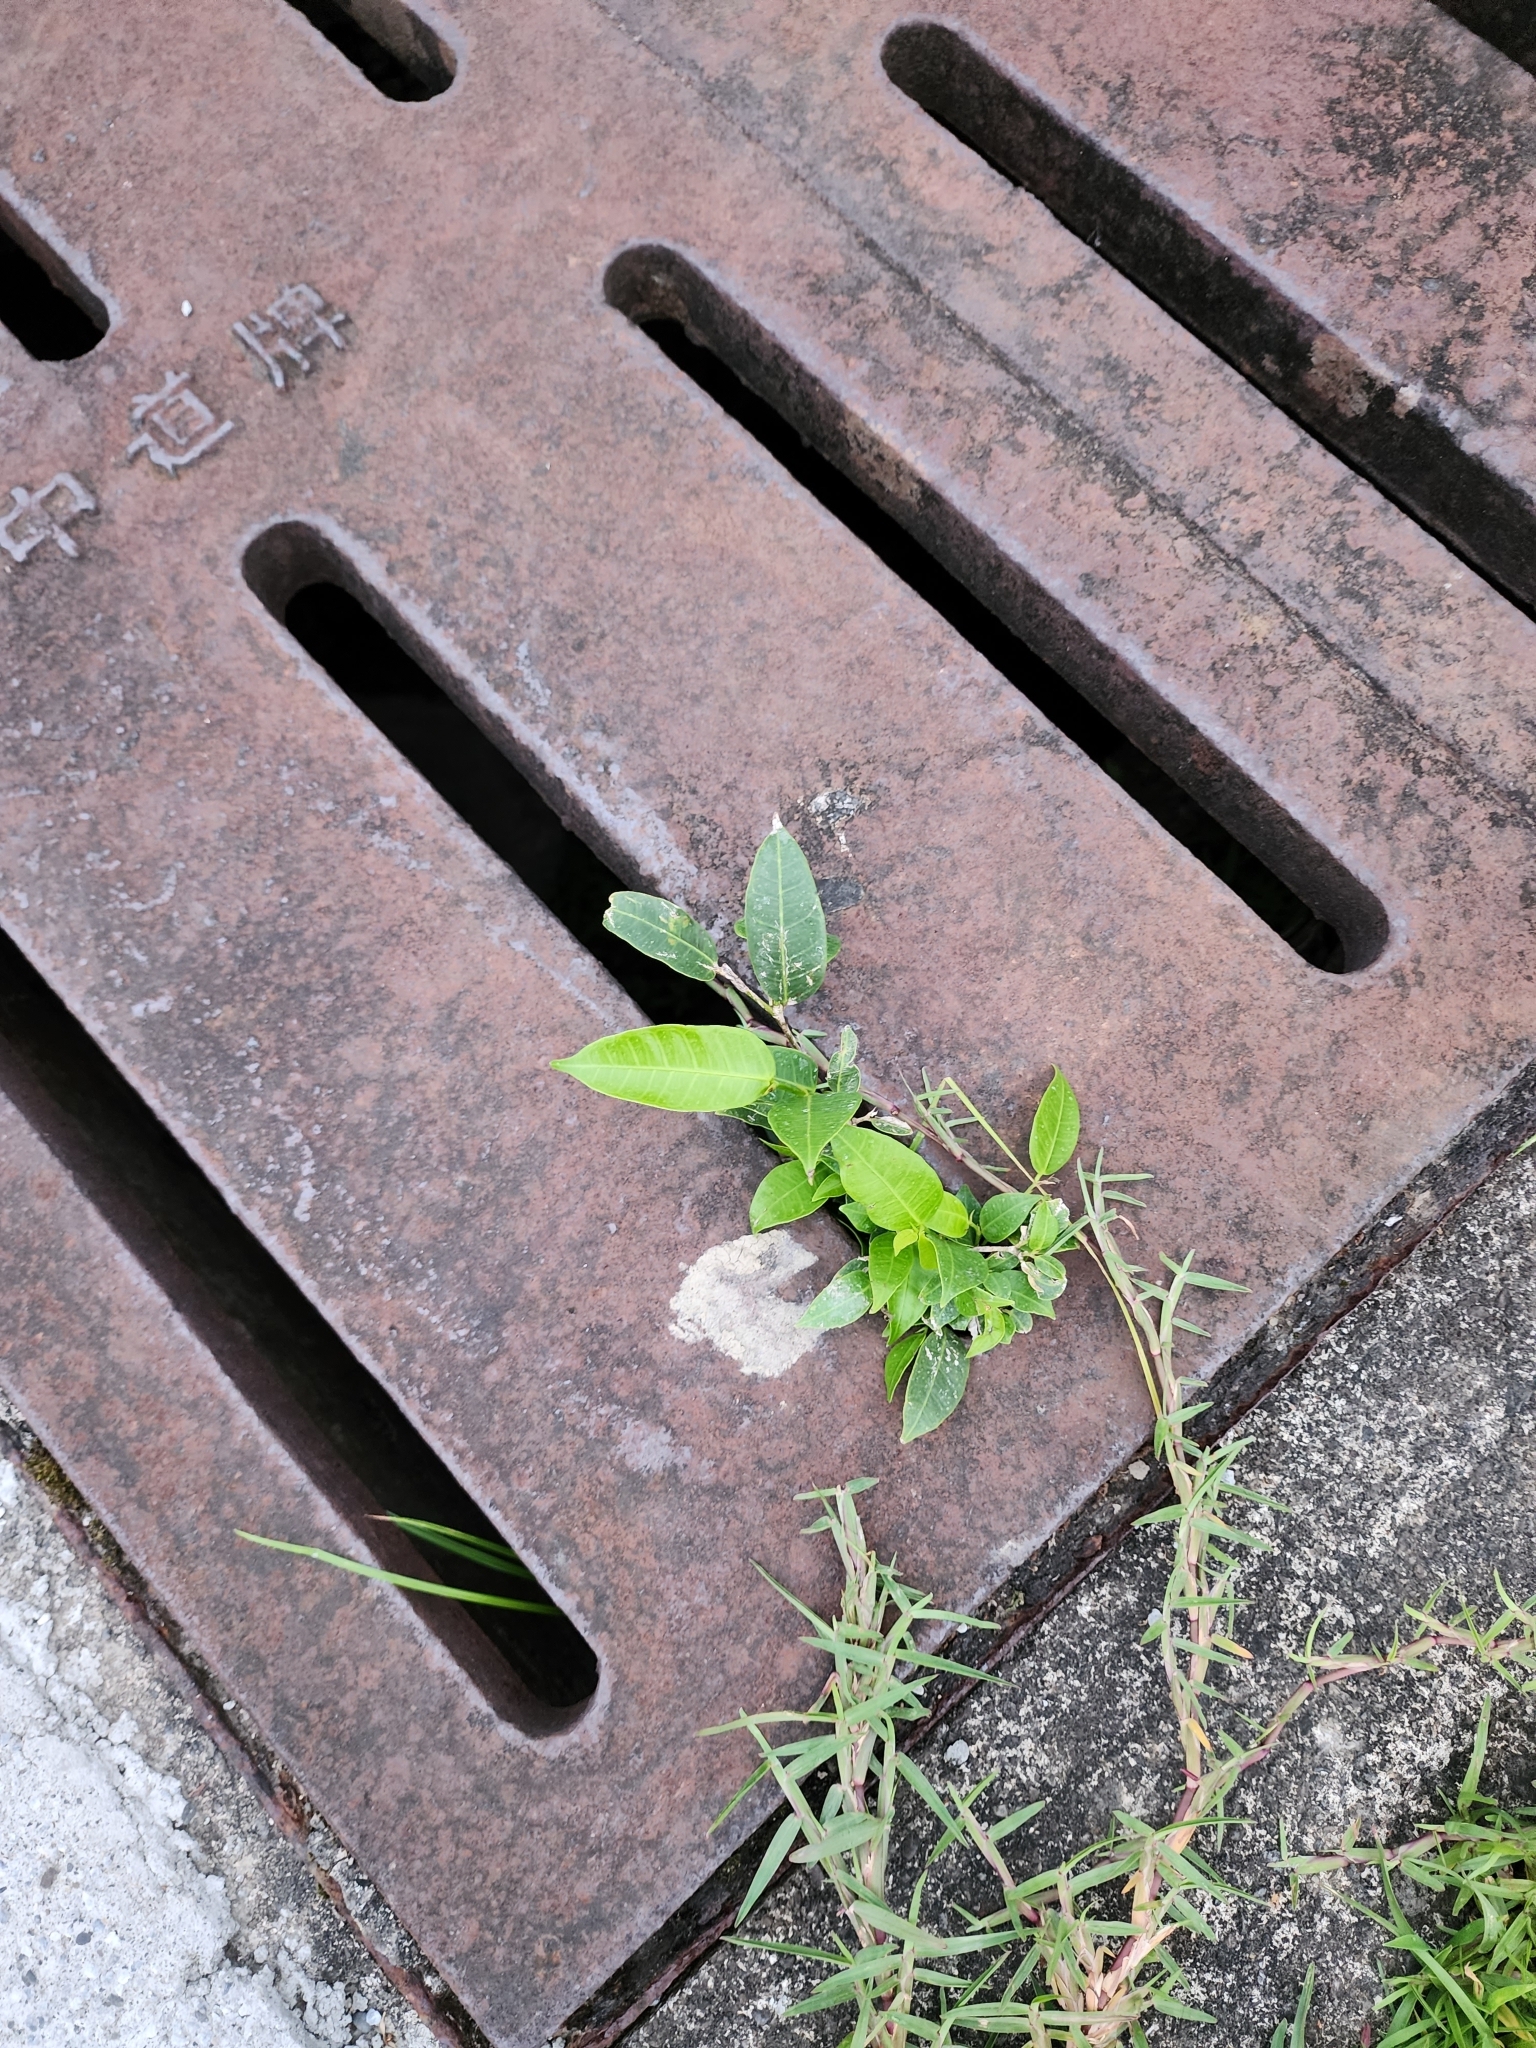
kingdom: Plantae
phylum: Tracheophyta
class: Magnoliopsida
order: Rosales
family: Moraceae
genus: Ficus
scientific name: Ficus virgata
